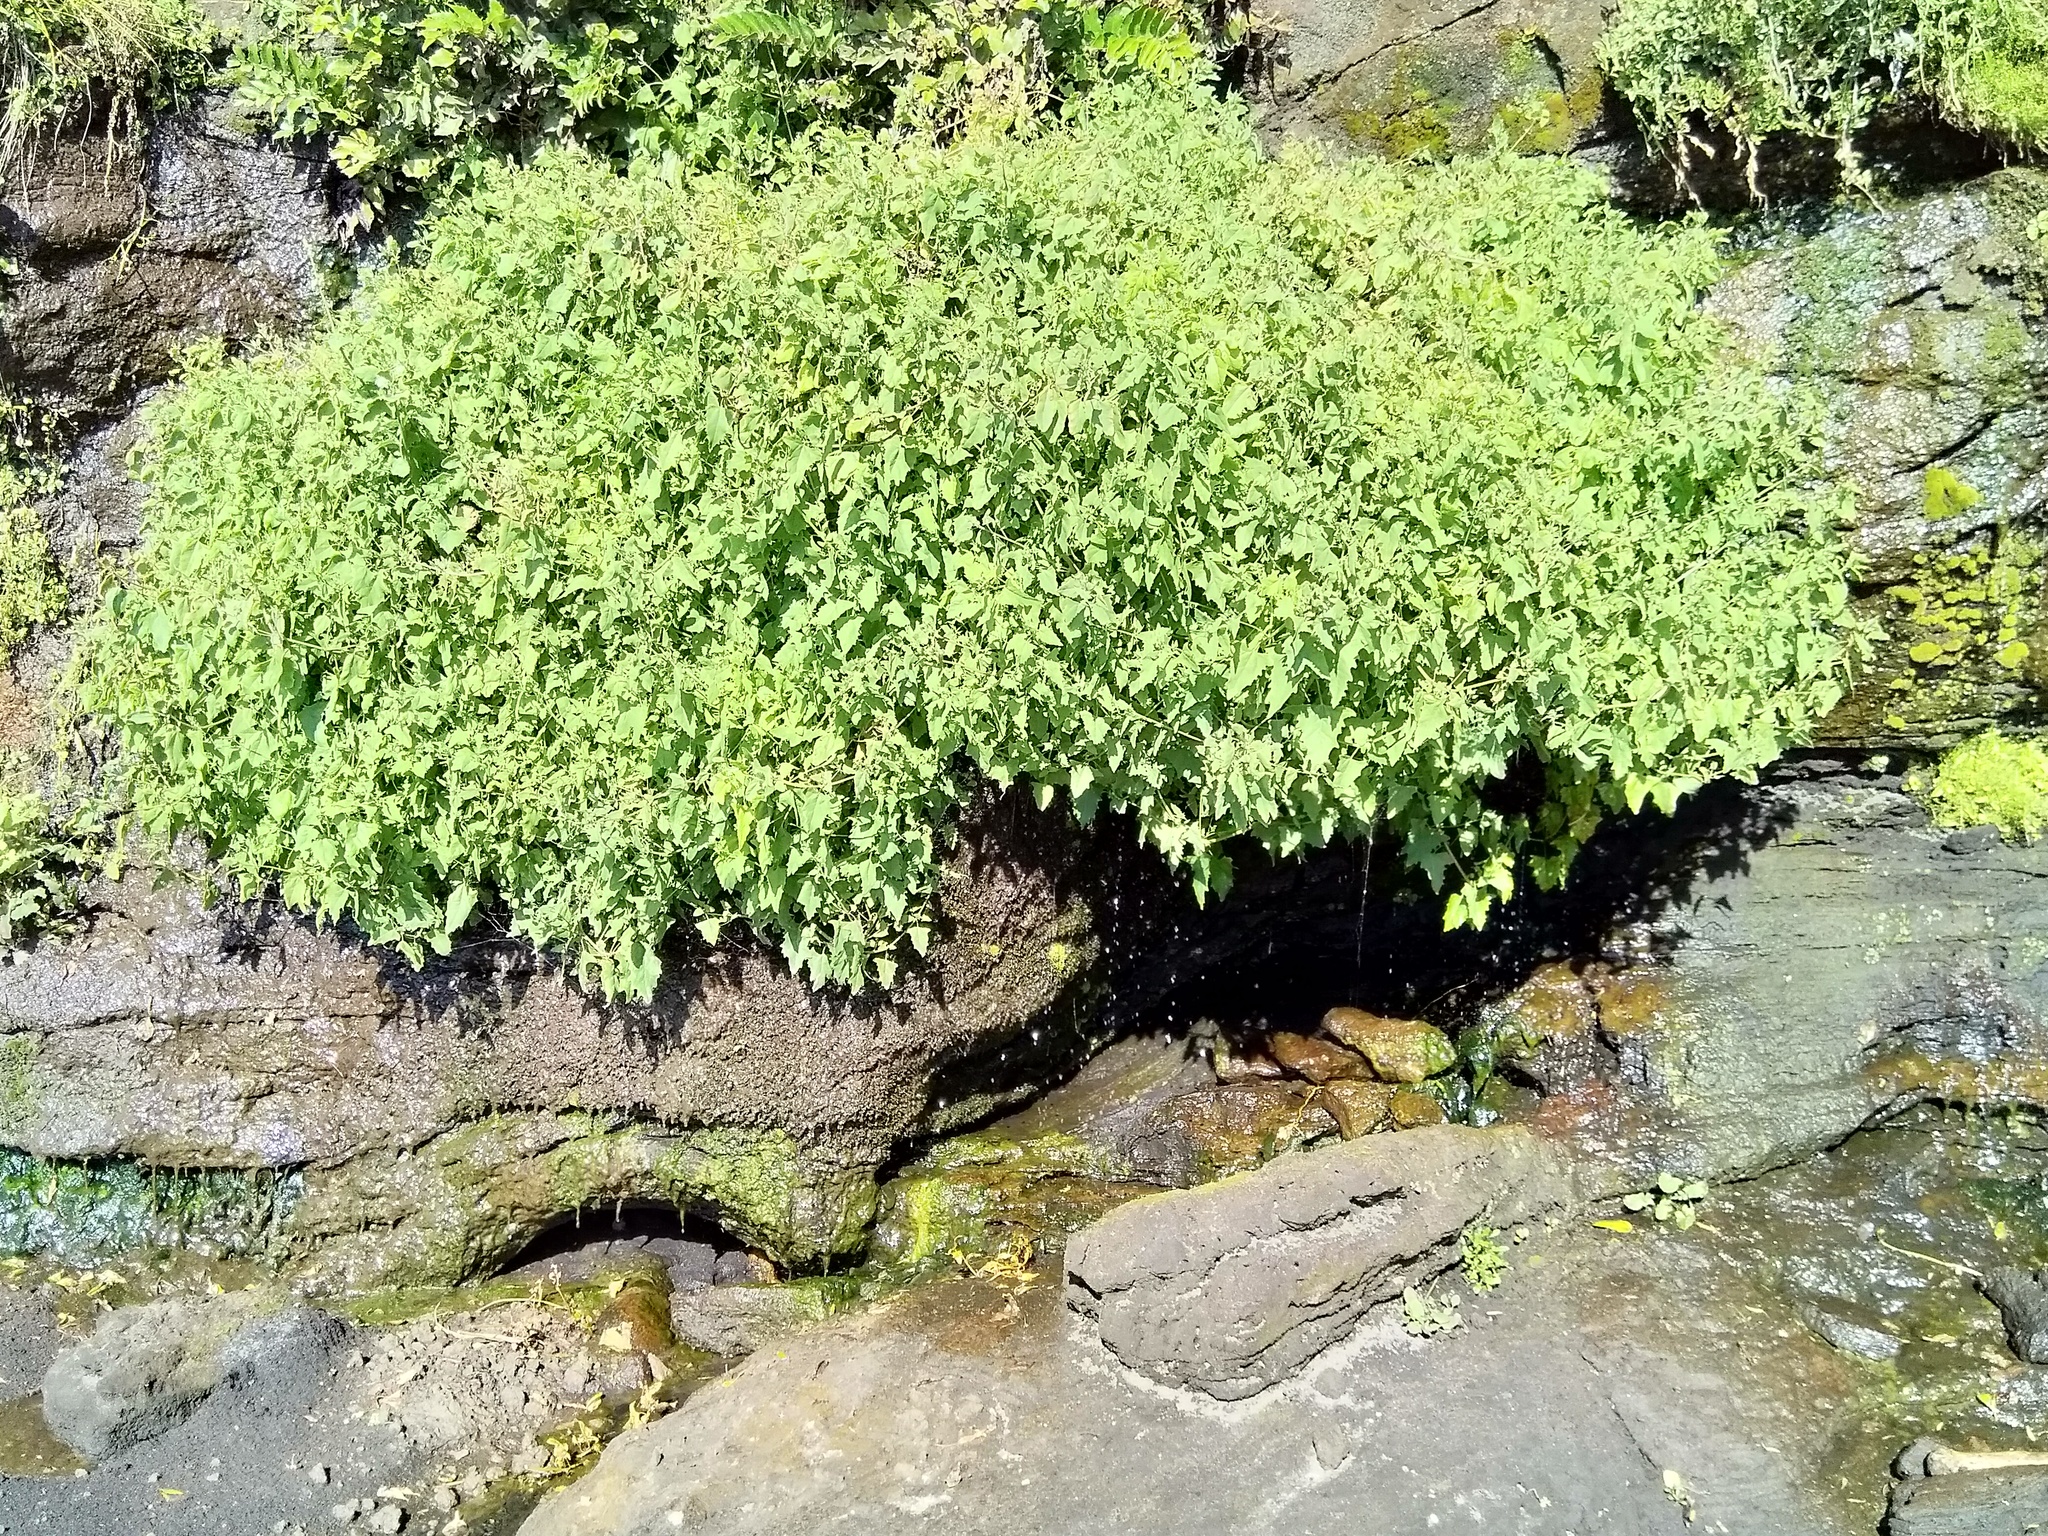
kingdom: Plantae
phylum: Tracheophyta
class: Magnoliopsida
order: Caryophyllales
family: Amaranthaceae
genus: Atriplex
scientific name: Atriplex prostrata
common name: Spear-leaved orache
